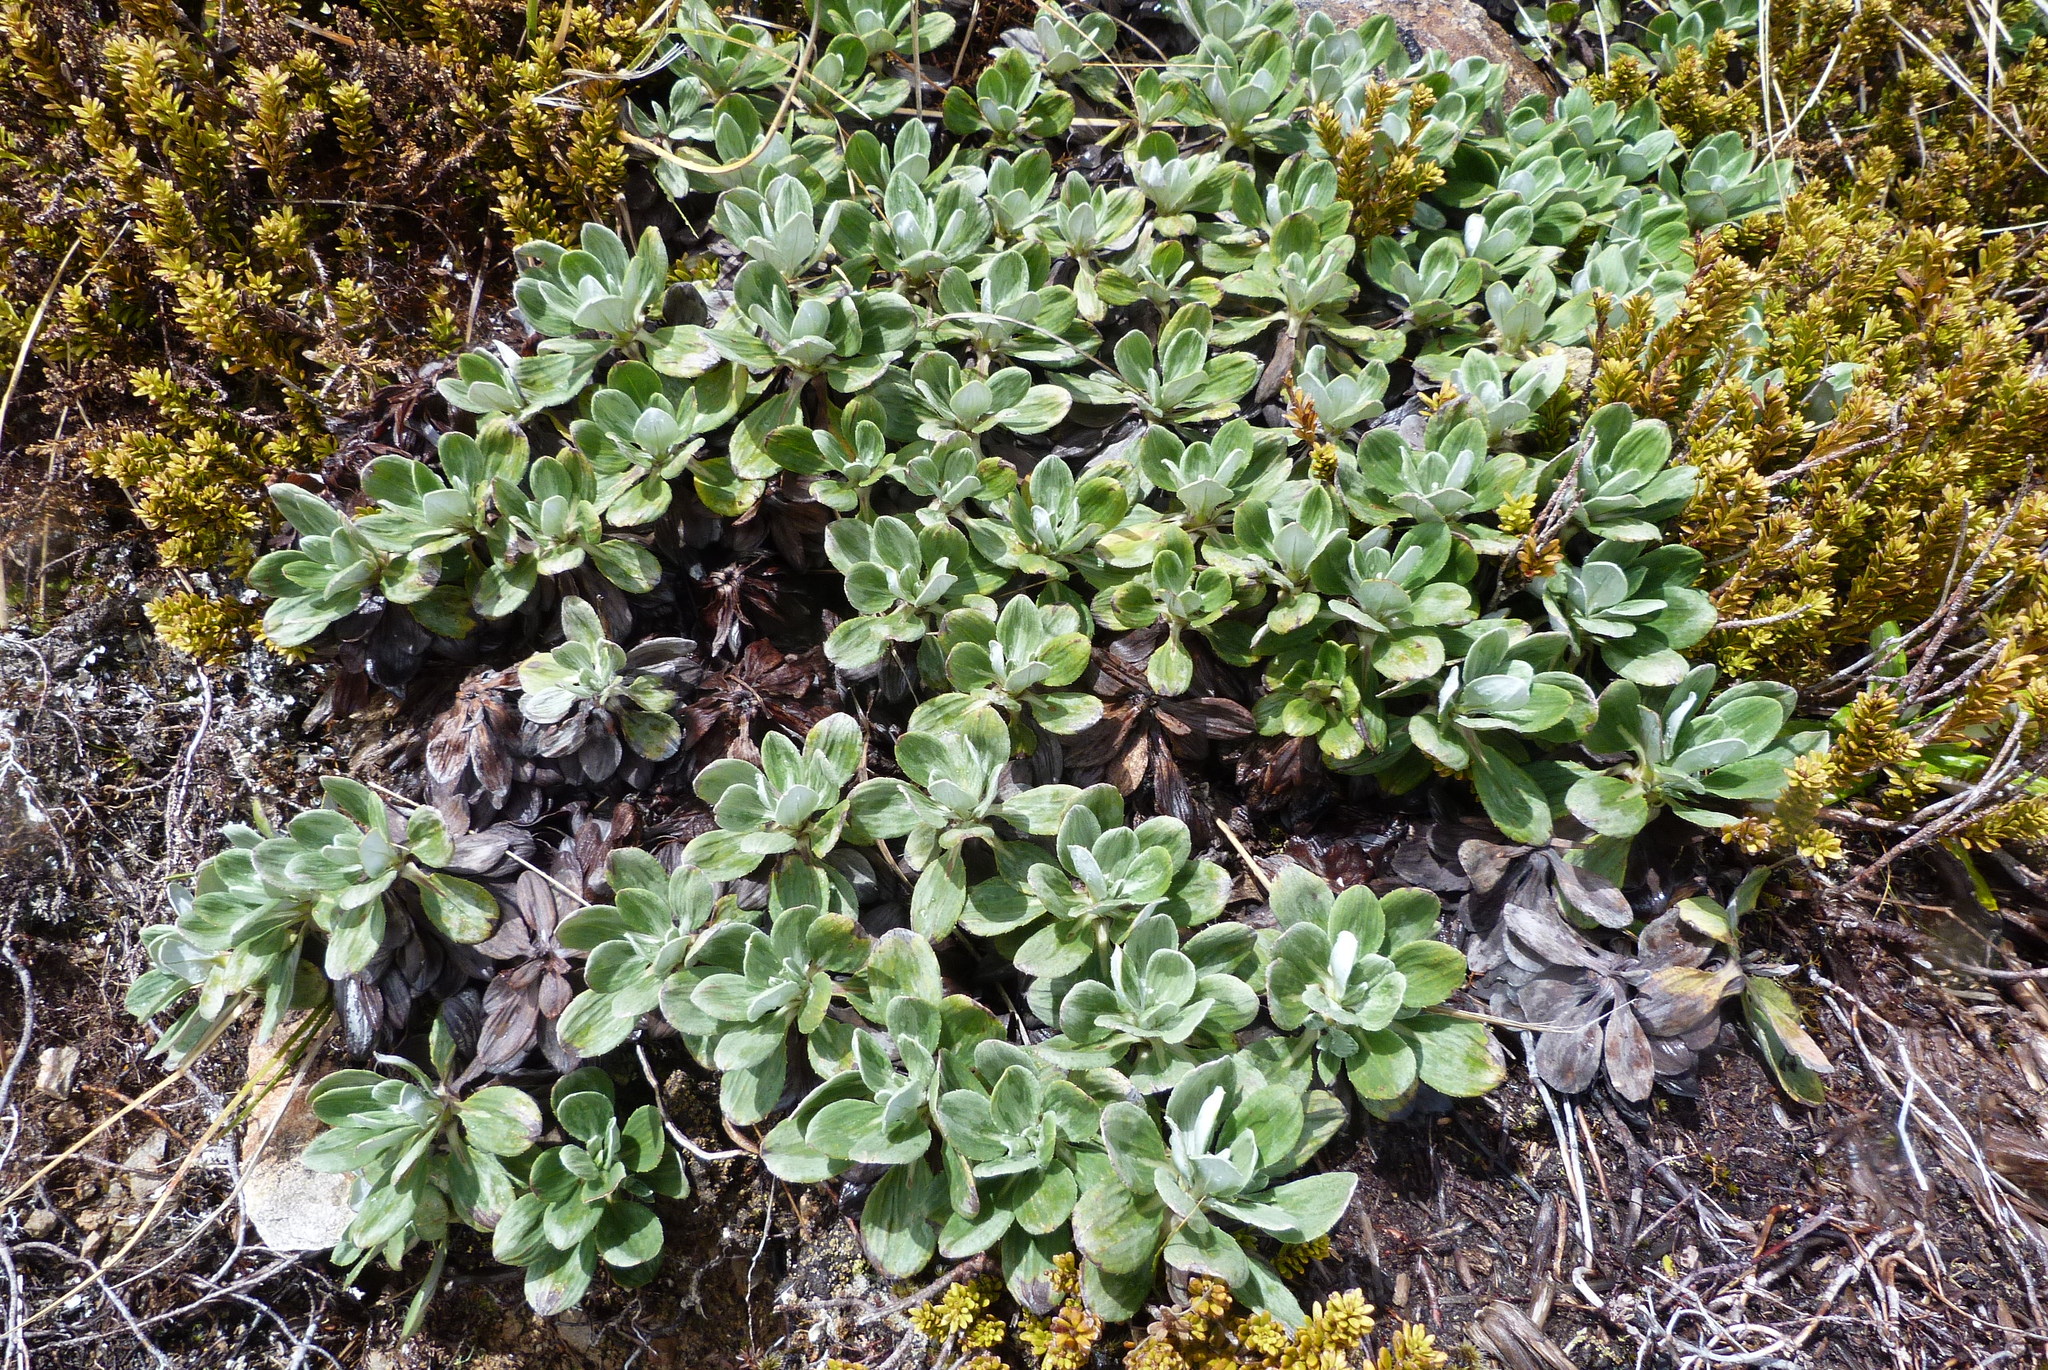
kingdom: Plantae
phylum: Tracheophyta
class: Magnoliopsida
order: Asterales
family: Asteraceae
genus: Celmisia
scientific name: Celmisia discolor
